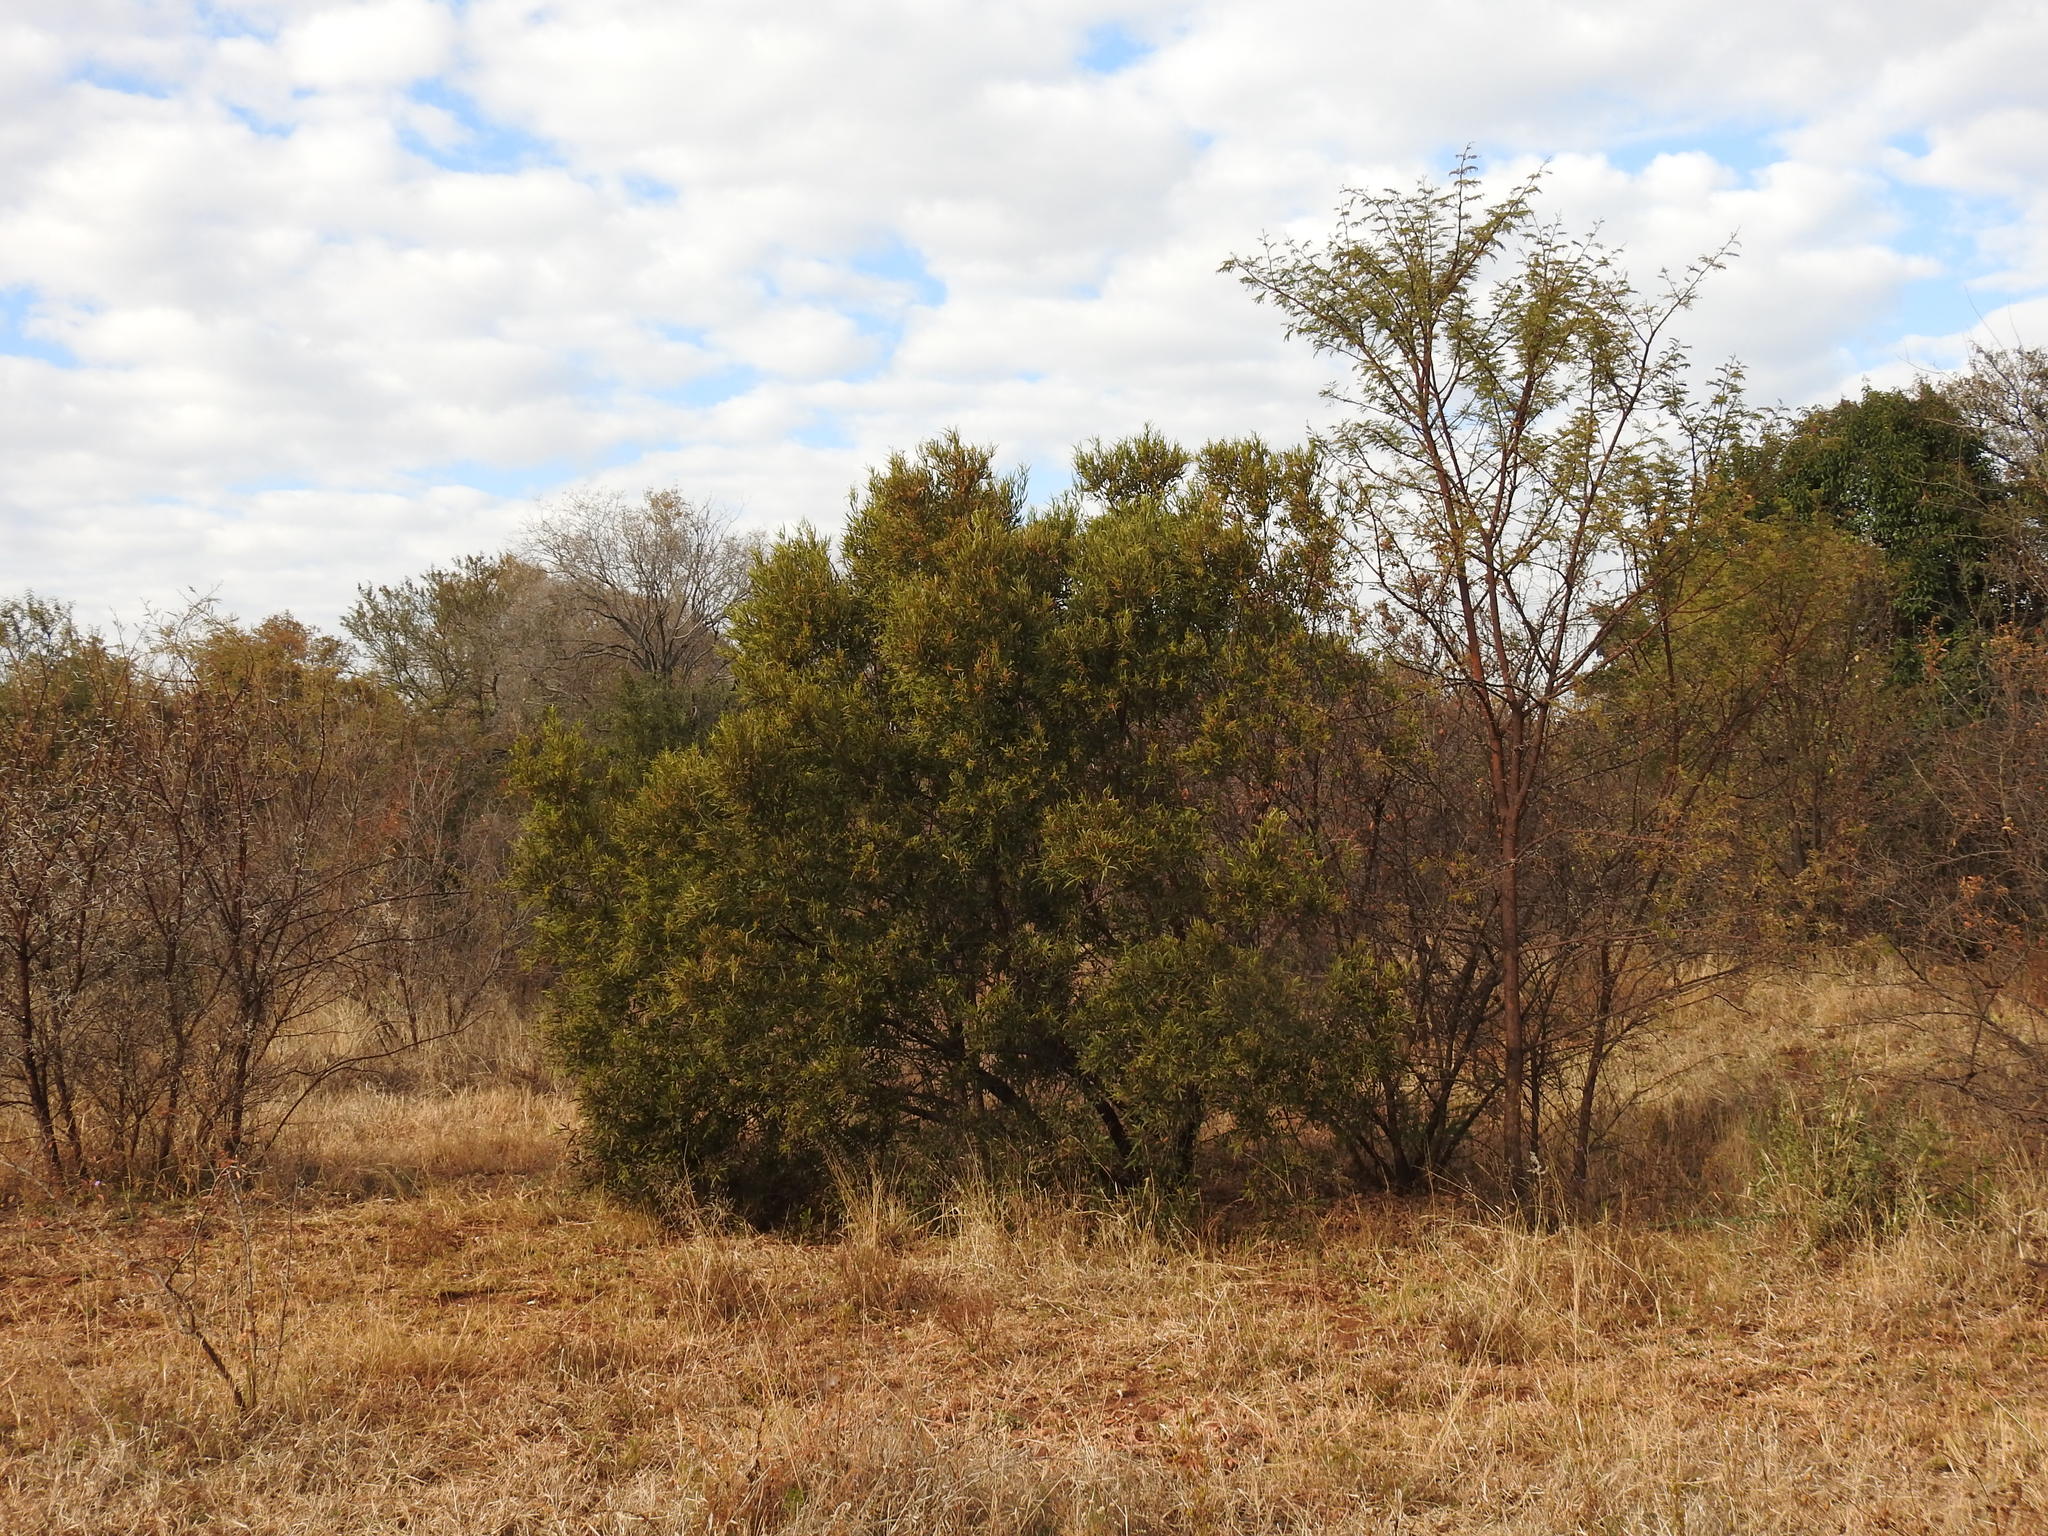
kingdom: Plantae
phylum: Tracheophyta
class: Magnoliopsida
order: Sapindales
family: Anacardiaceae
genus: Searsia
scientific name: Searsia lancea
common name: Cashew
